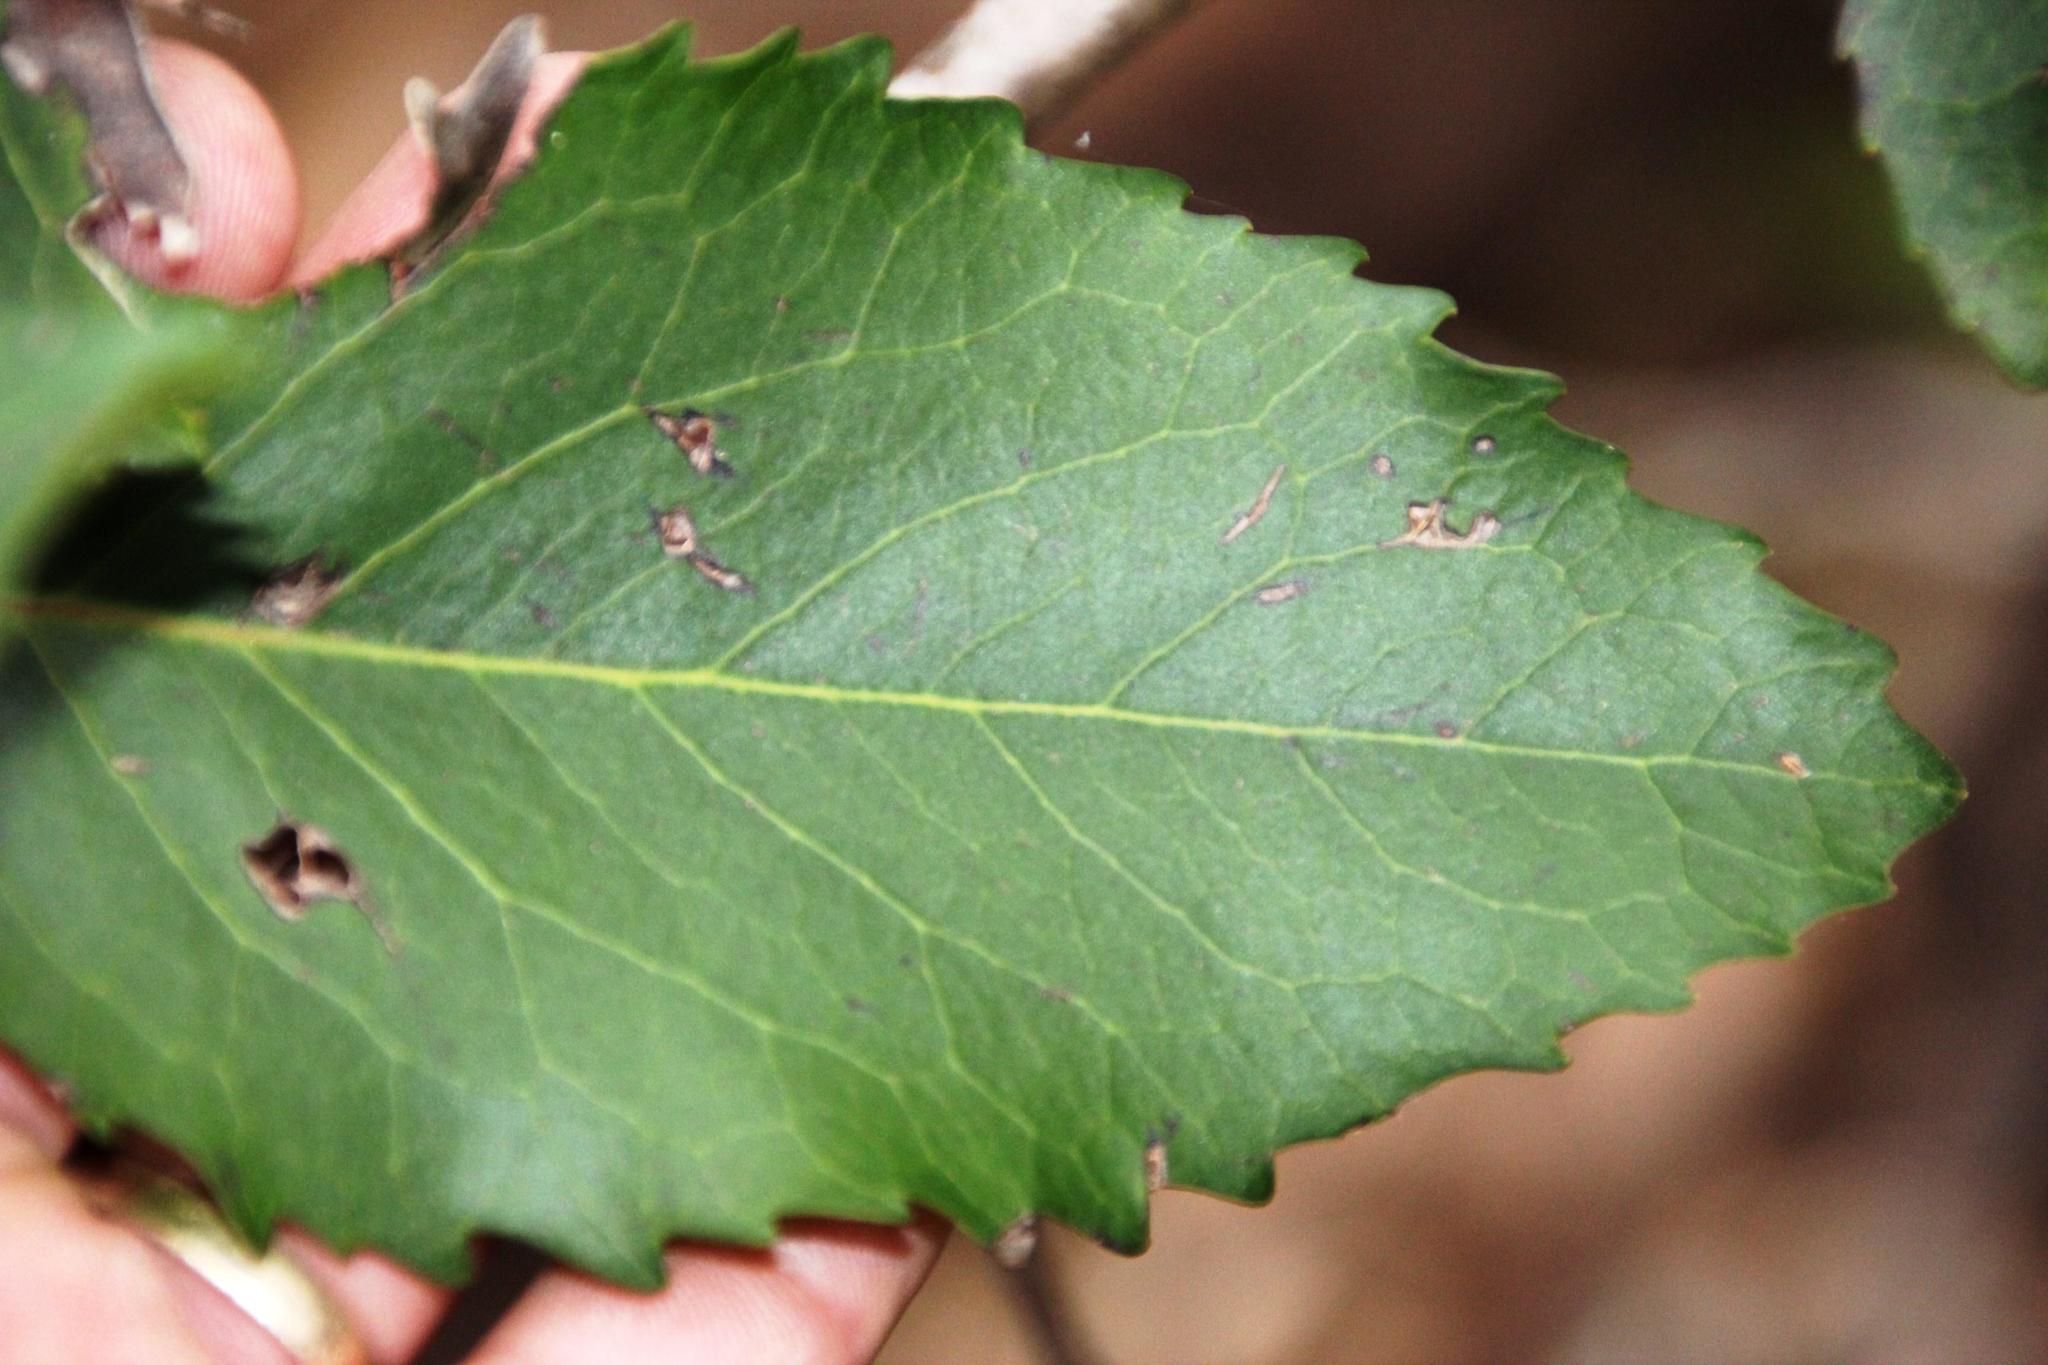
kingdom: Plantae
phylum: Tracheophyta
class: Magnoliopsida
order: Proteales
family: Proteaceae
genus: Lomatia
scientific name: Lomatia hirsuta
